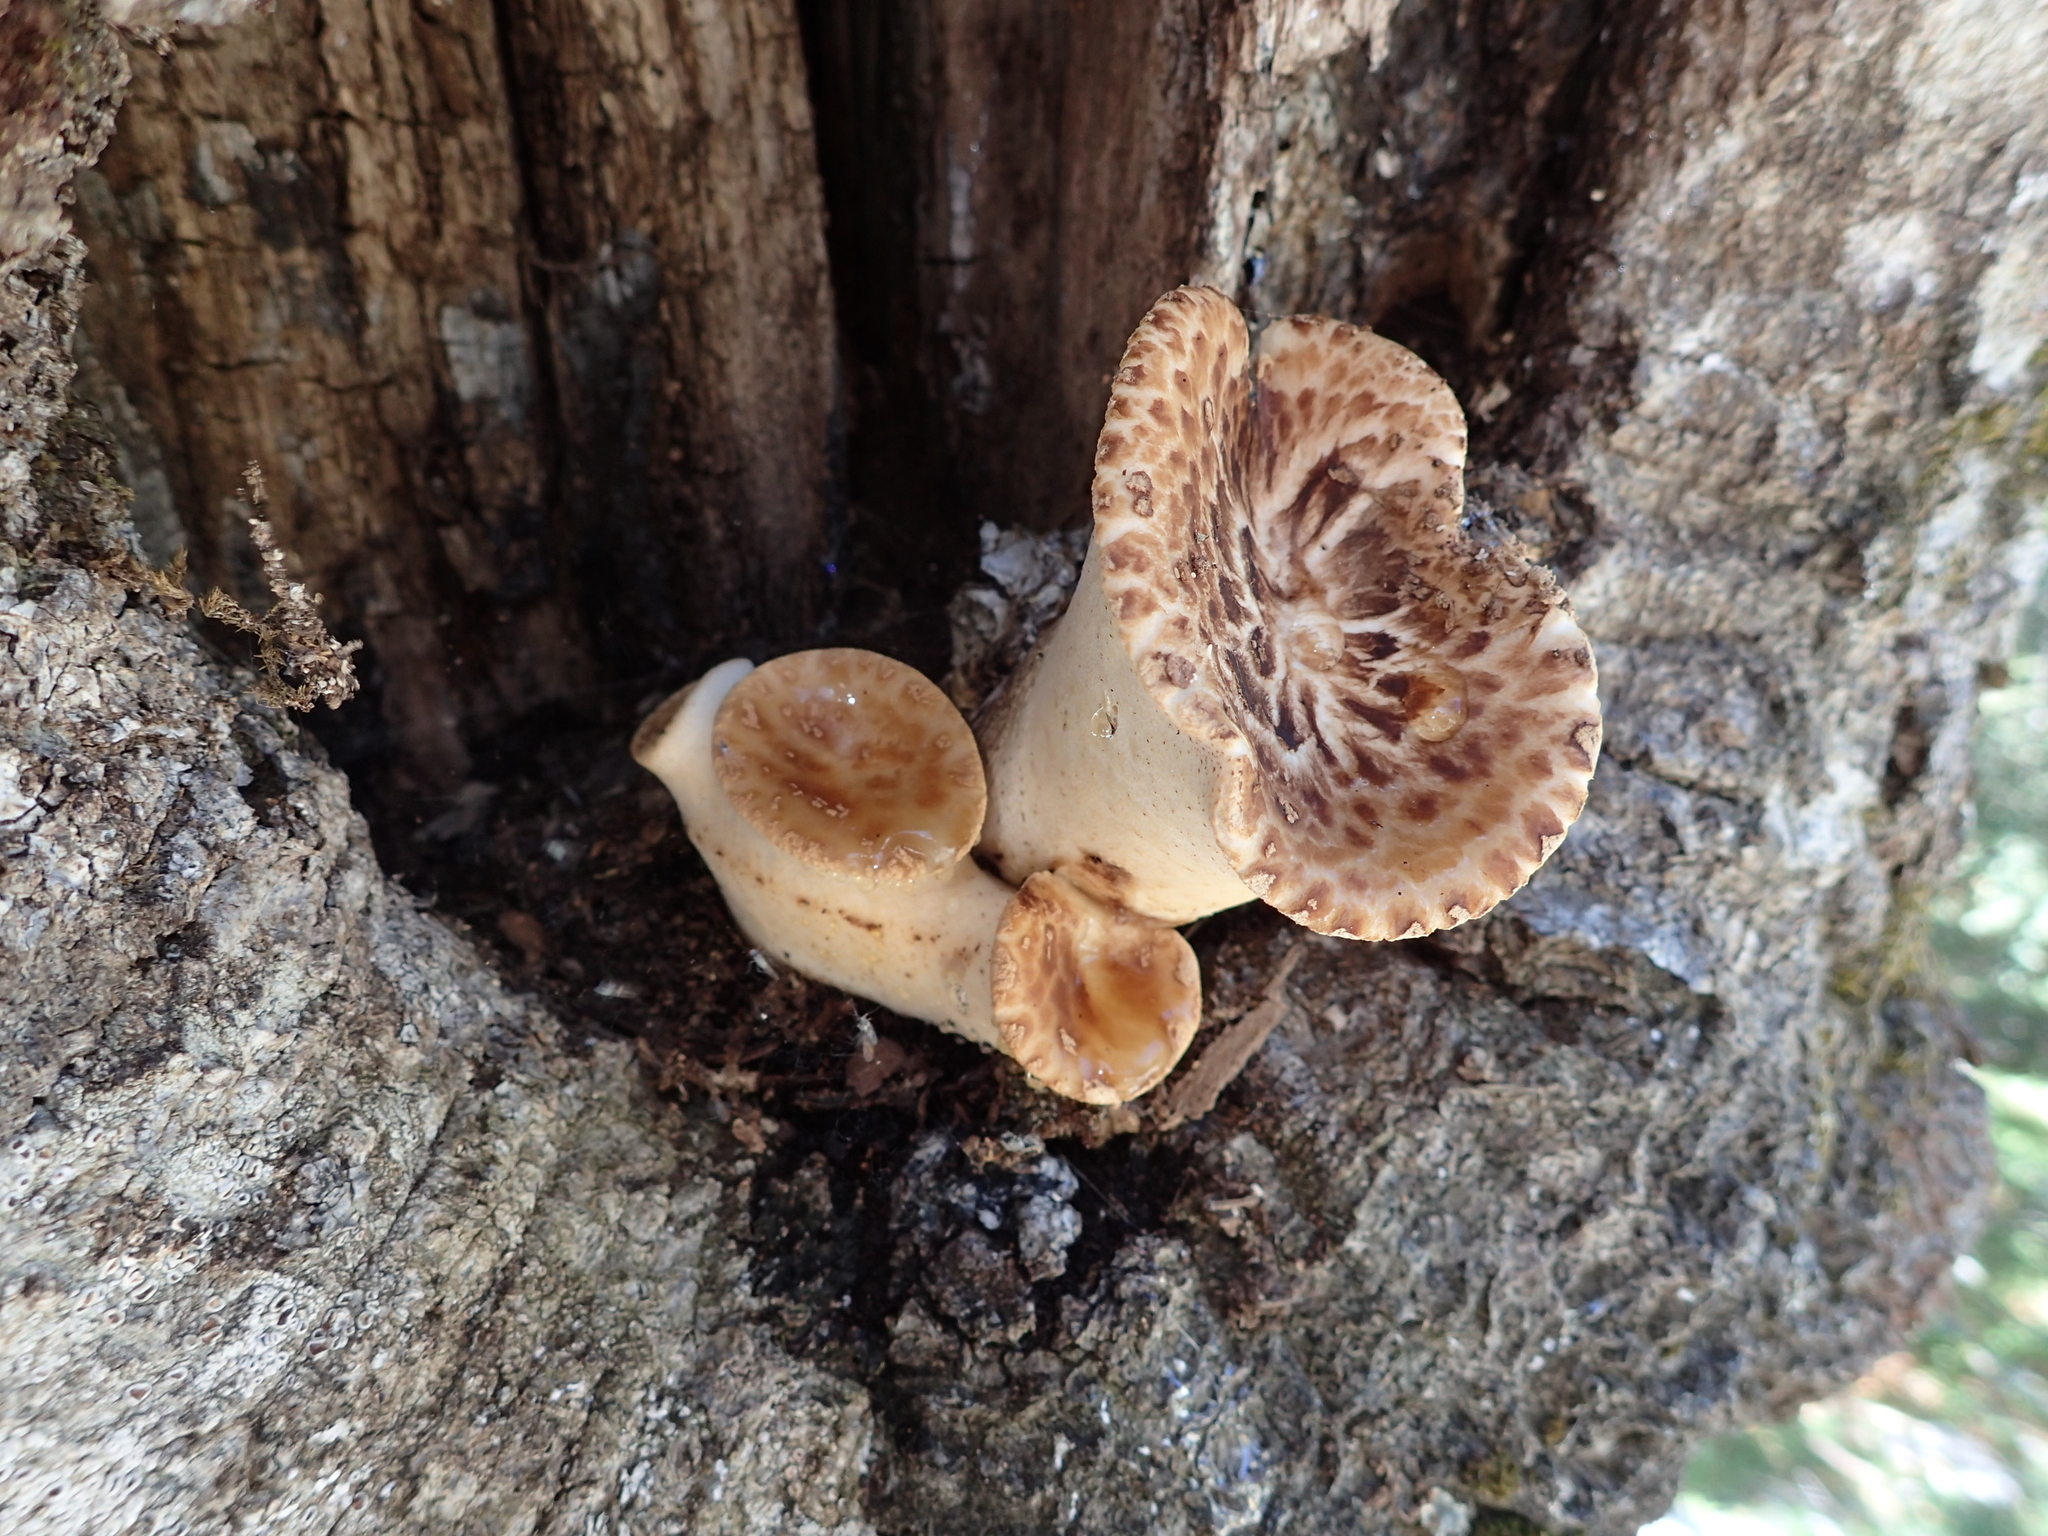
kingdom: Fungi
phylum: Basidiomycota
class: Agaricomycetes
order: Polyporales
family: Polyporaceae
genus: Cerioporus
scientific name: Cerioporus squamosus
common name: Dryad's saddle
